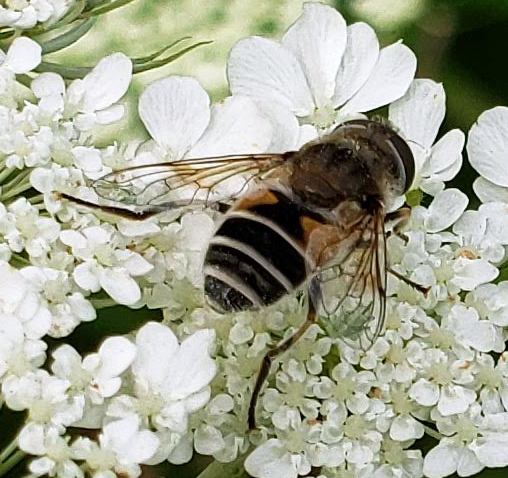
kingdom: Animalia
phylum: Arthropoda
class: Insecta
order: Diptera
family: Syrphidae
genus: Eristalis
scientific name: Eristalis arbustorum
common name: Hover fly
